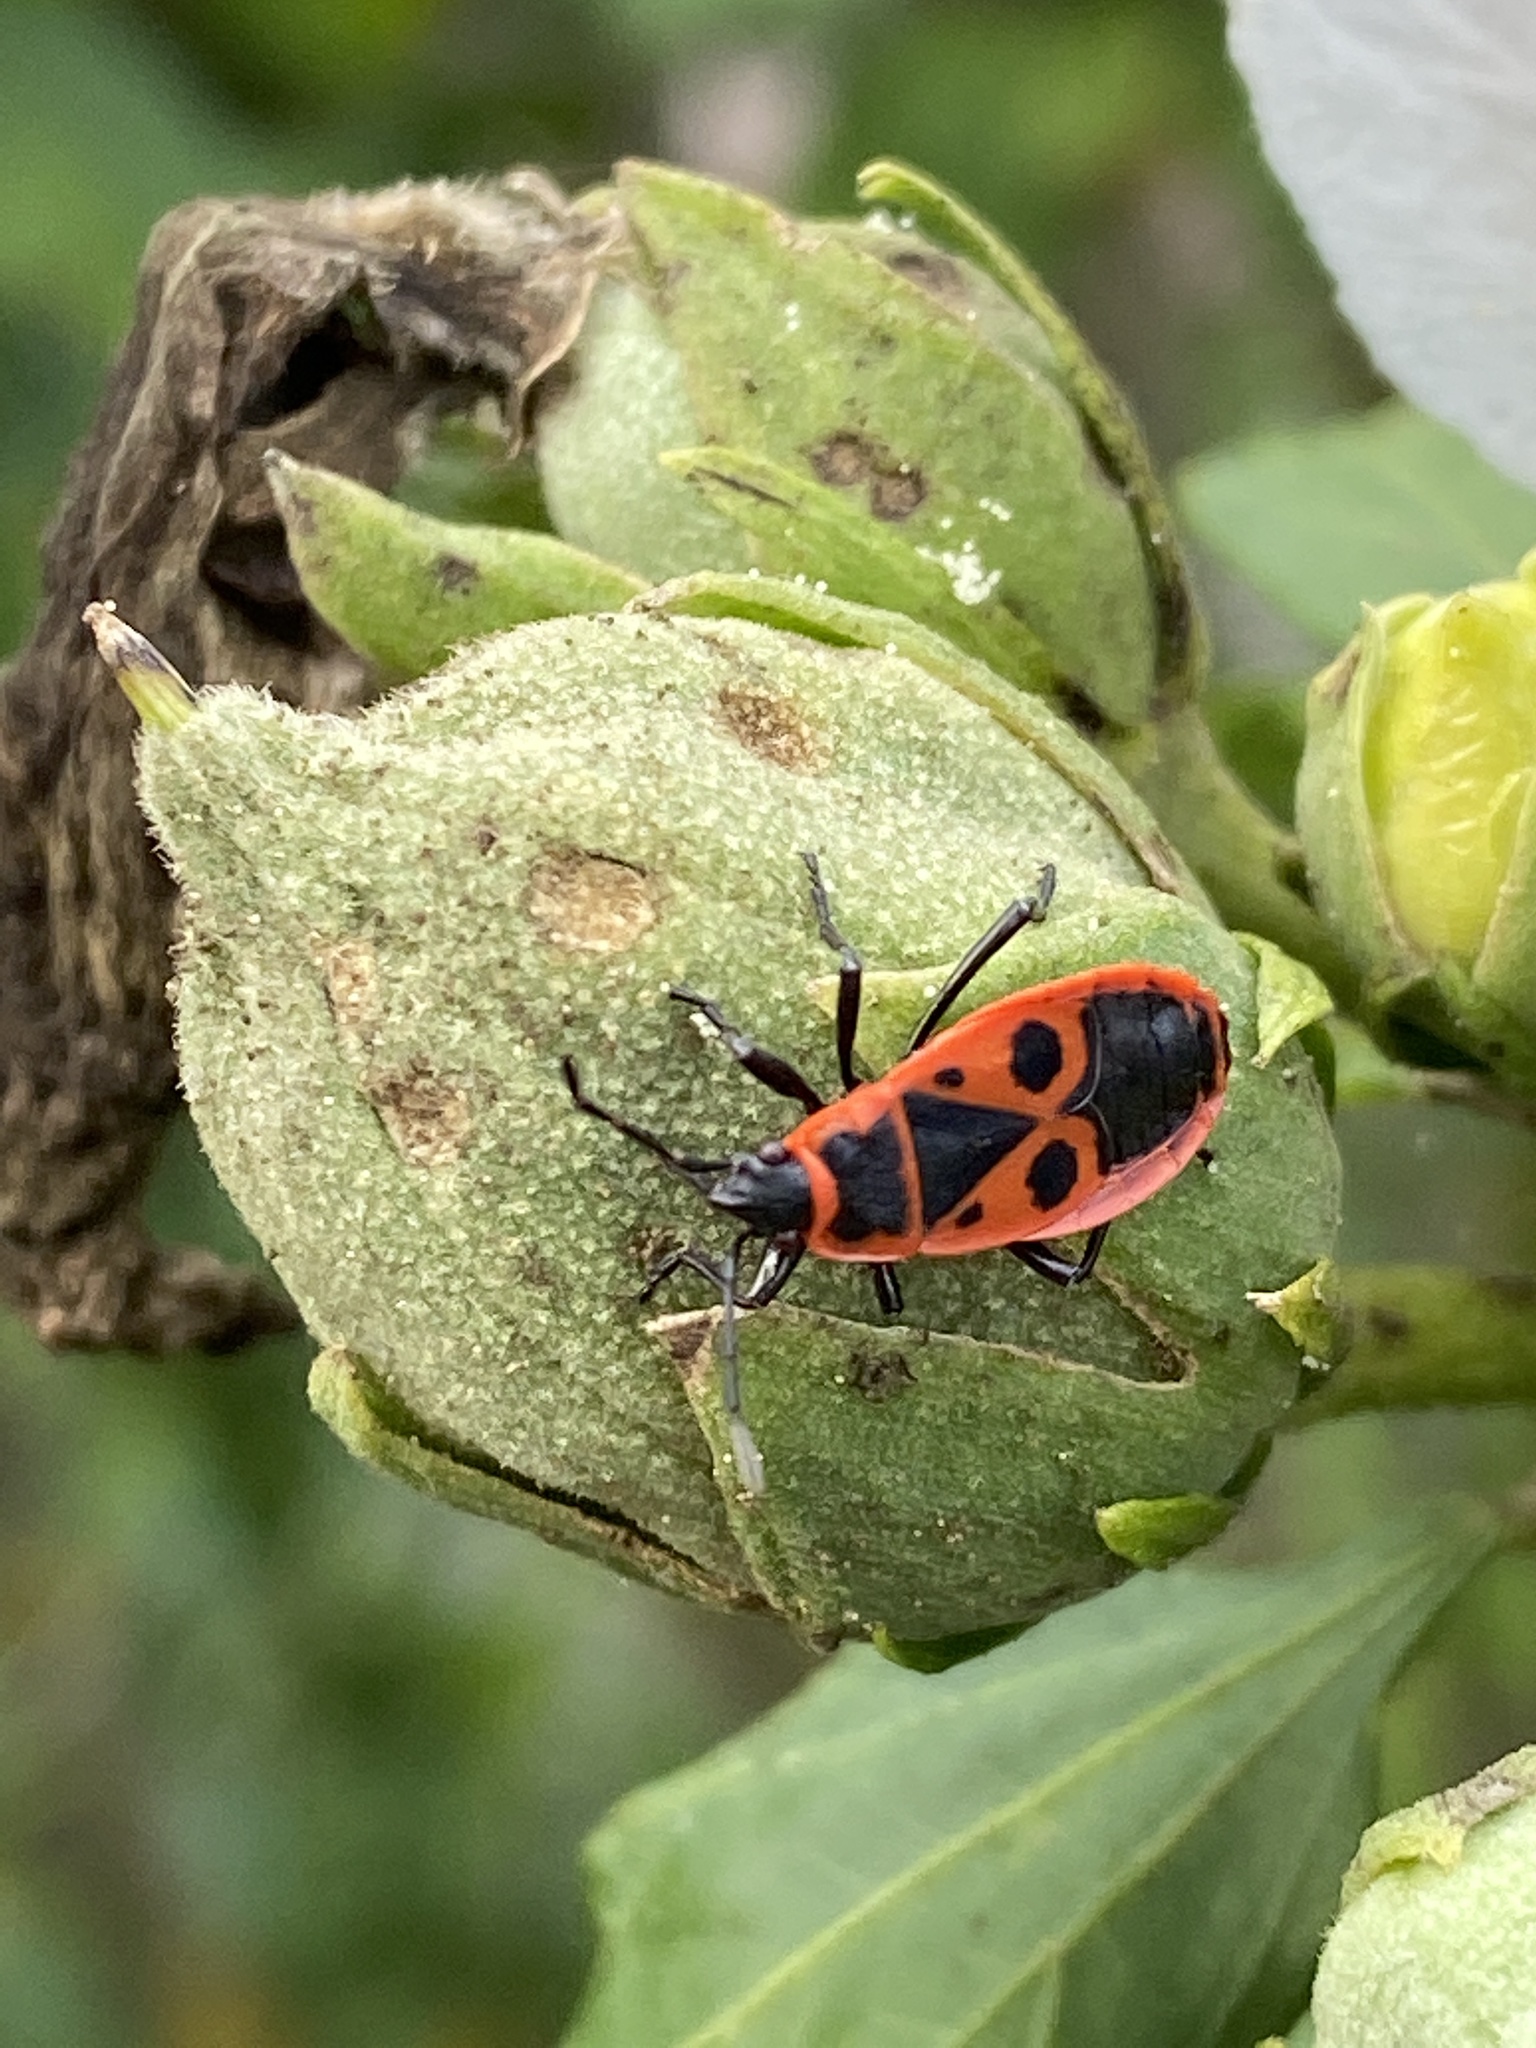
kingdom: Animalia
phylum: Arthropoda
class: Insecta
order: Hemiptera
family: Pyrrhocoridae
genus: Pyrrhocoris
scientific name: Pyrrhocoris apterus
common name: Firebug
